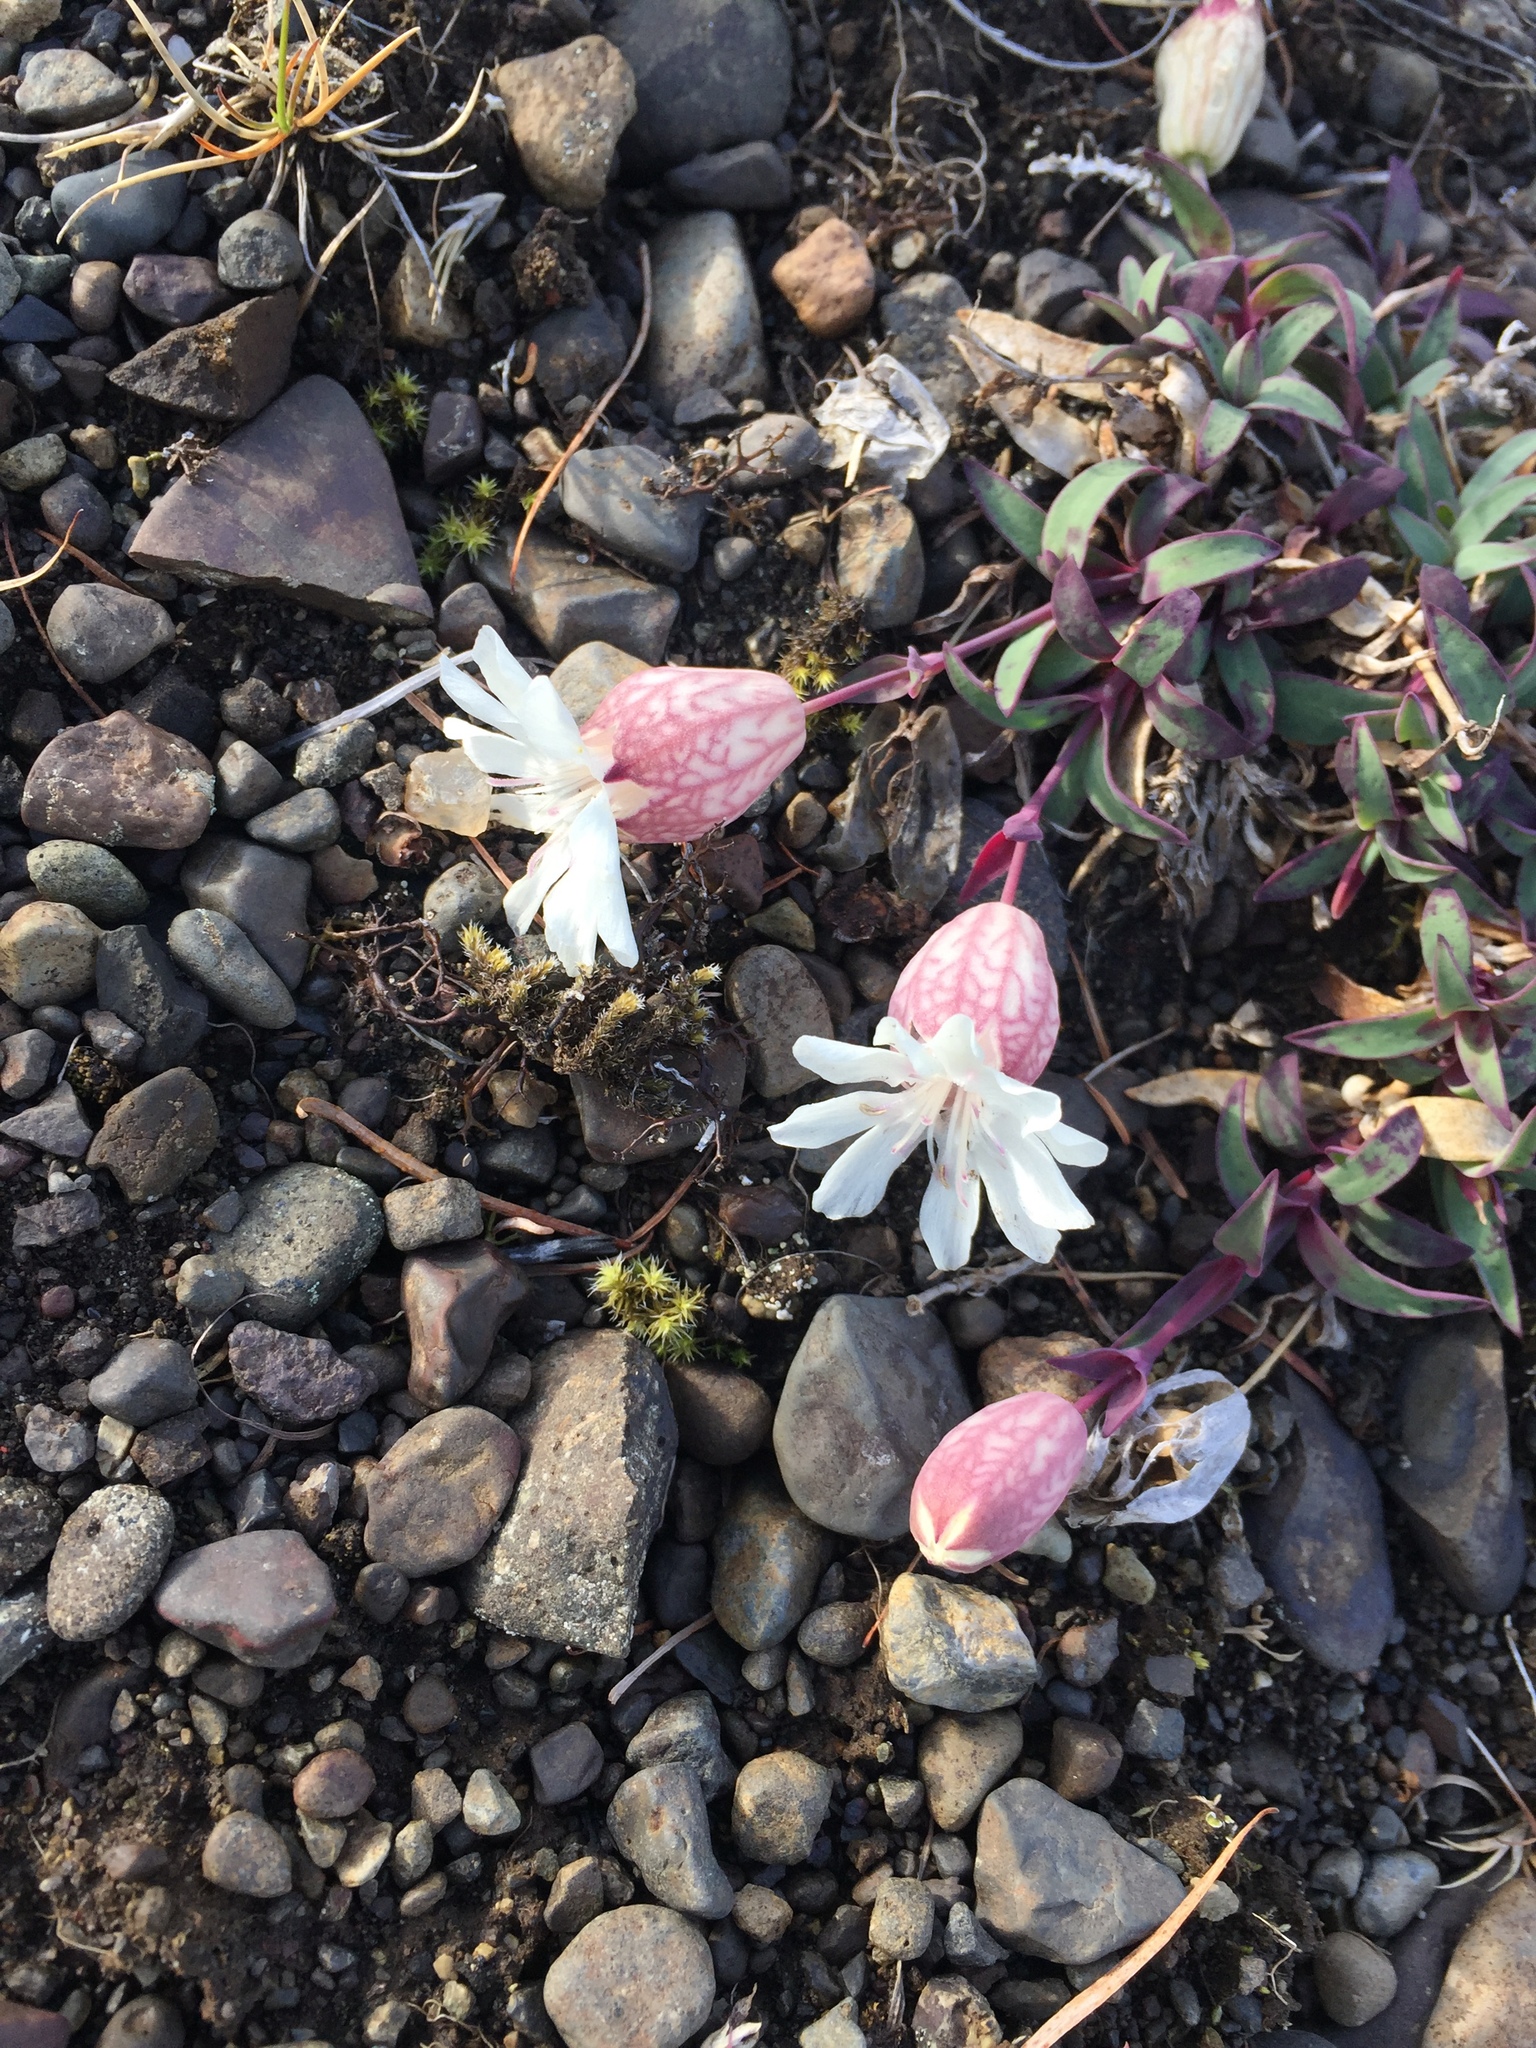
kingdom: Plantae
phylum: Tracheophyta
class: Magnoliopsida
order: Caryophyllales
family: Caryophyllaceae
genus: Silene
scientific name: Silene uniflora
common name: Sea campion
